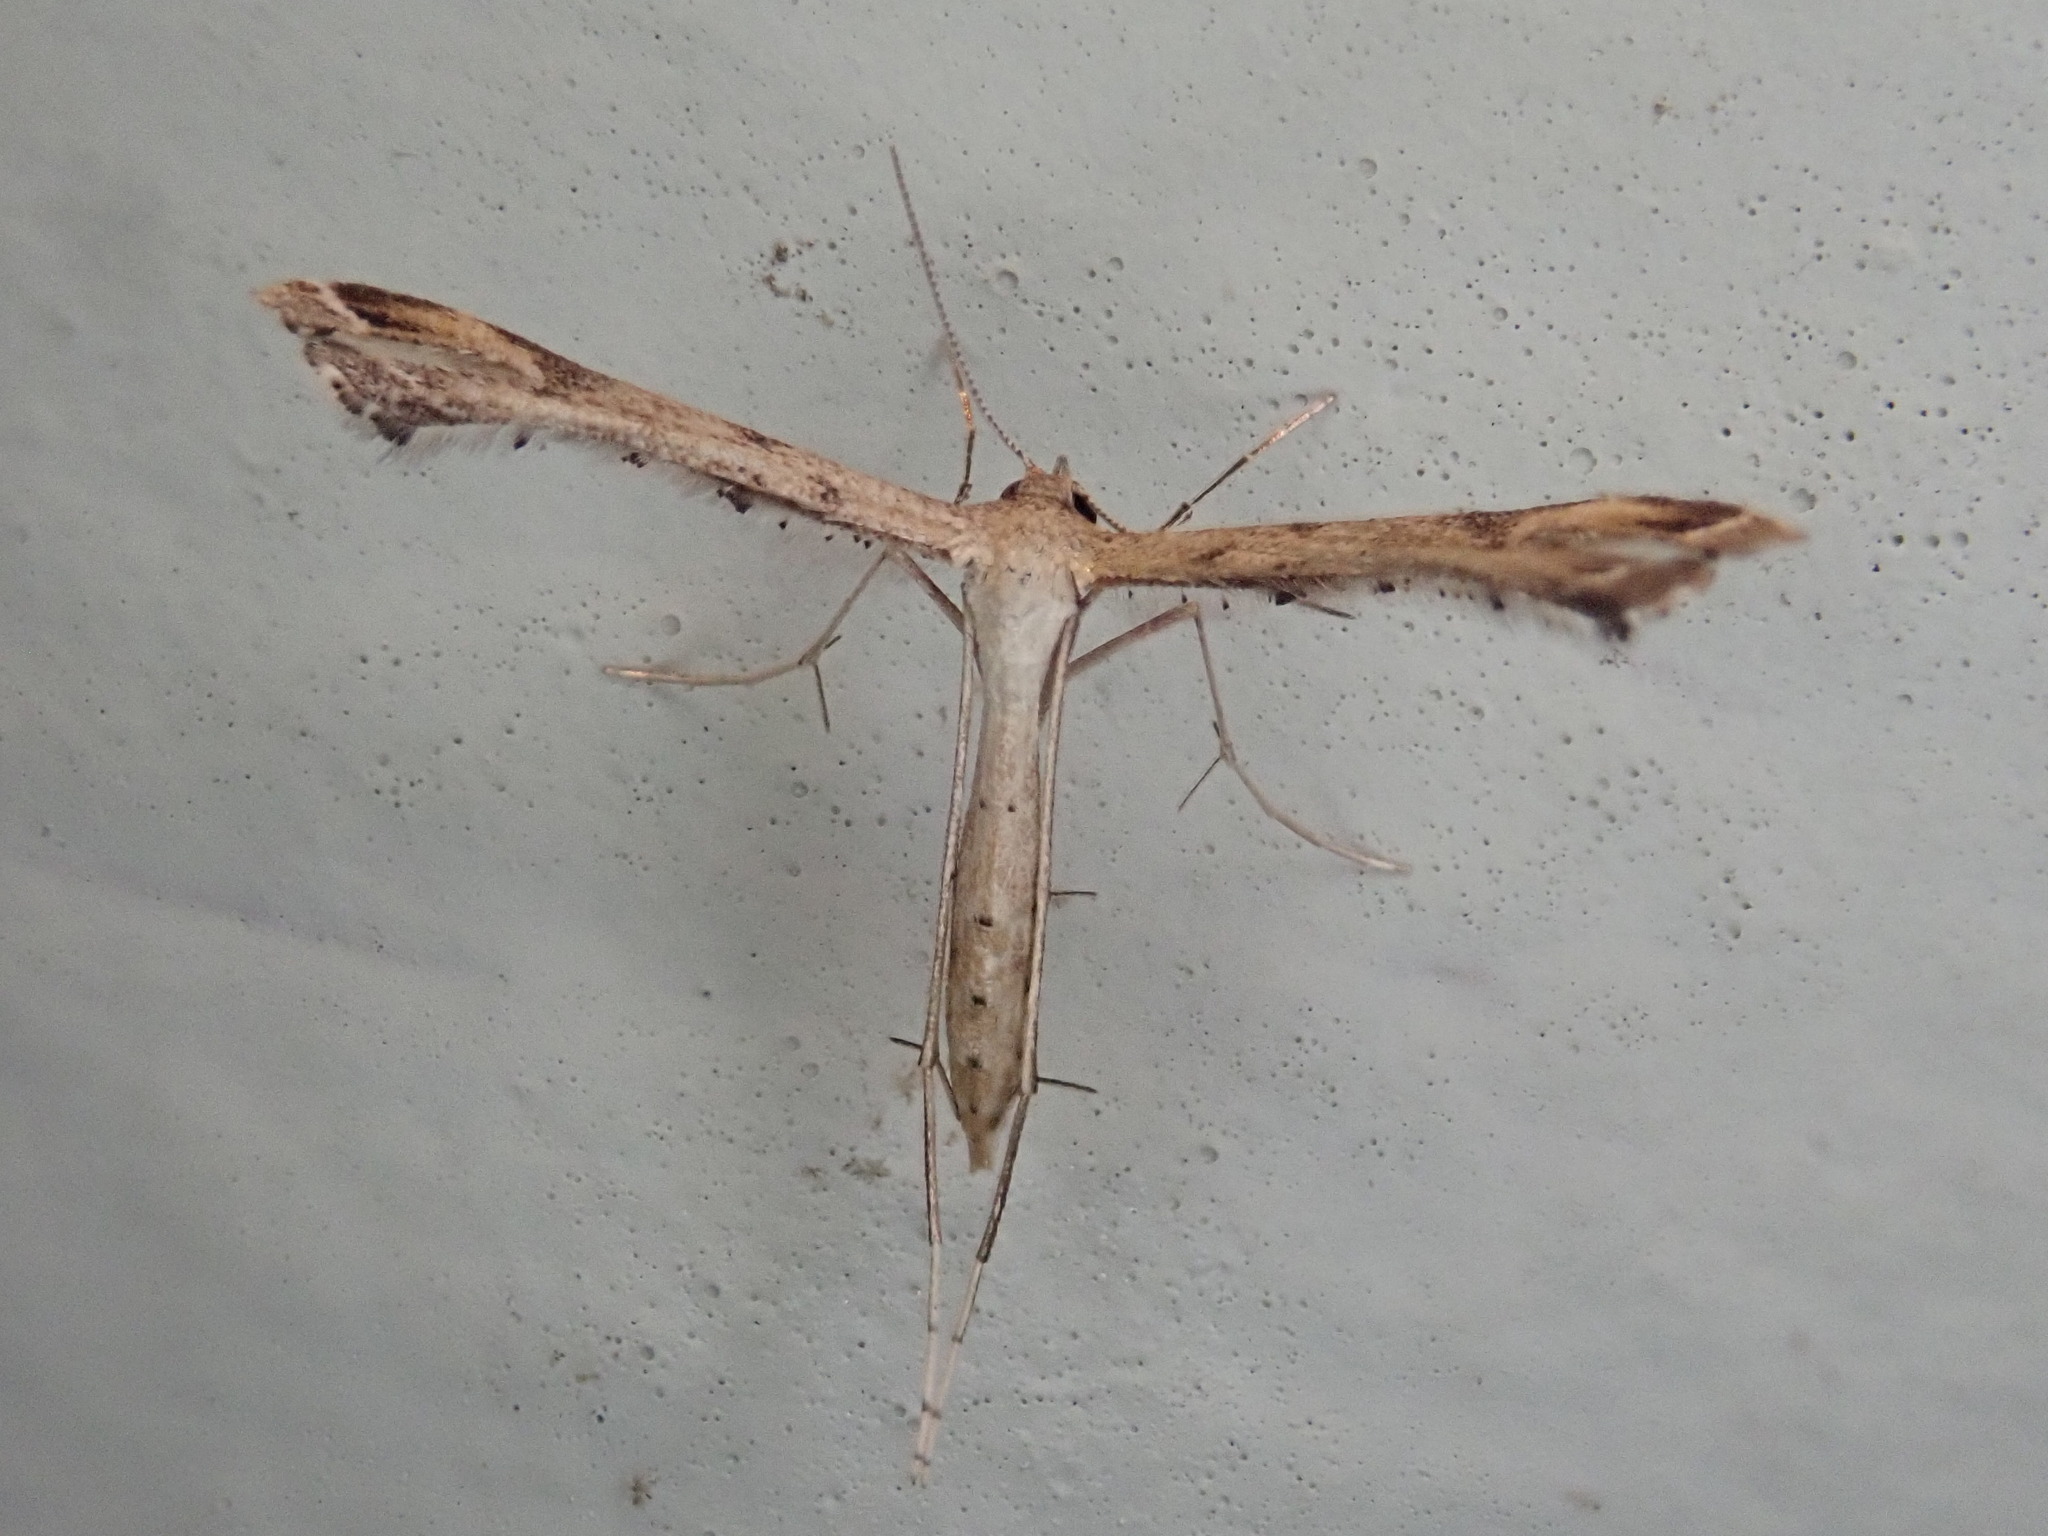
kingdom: Animalia
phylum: Arthropoda
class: Insecta
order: Lepidoptera
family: Pterophoridae
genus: Stenoptilodes
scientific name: Stenoptilodes
